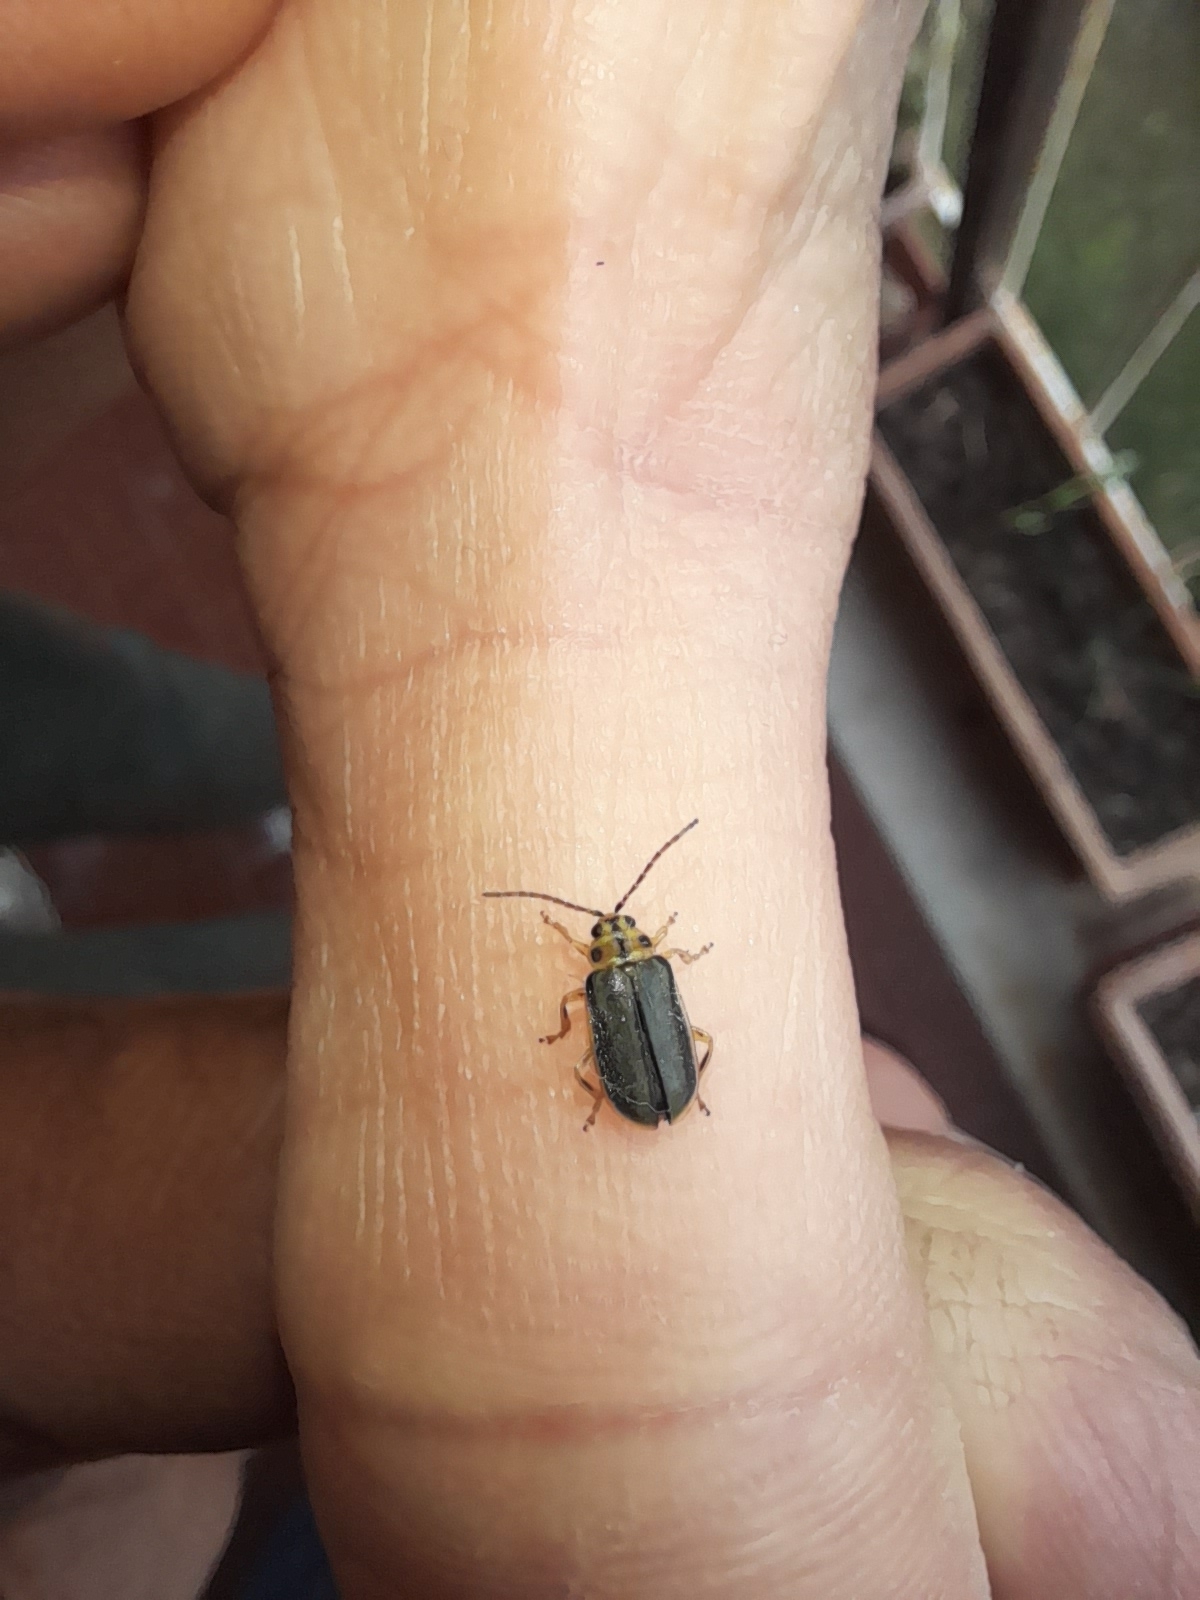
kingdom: Animalia
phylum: Arthropoda
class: Insecta
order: Coleoptera
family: Chrysomelidae
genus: Xanthogaleruca
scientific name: Xanthogaleruca luteola
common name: Elm leaf beetle
